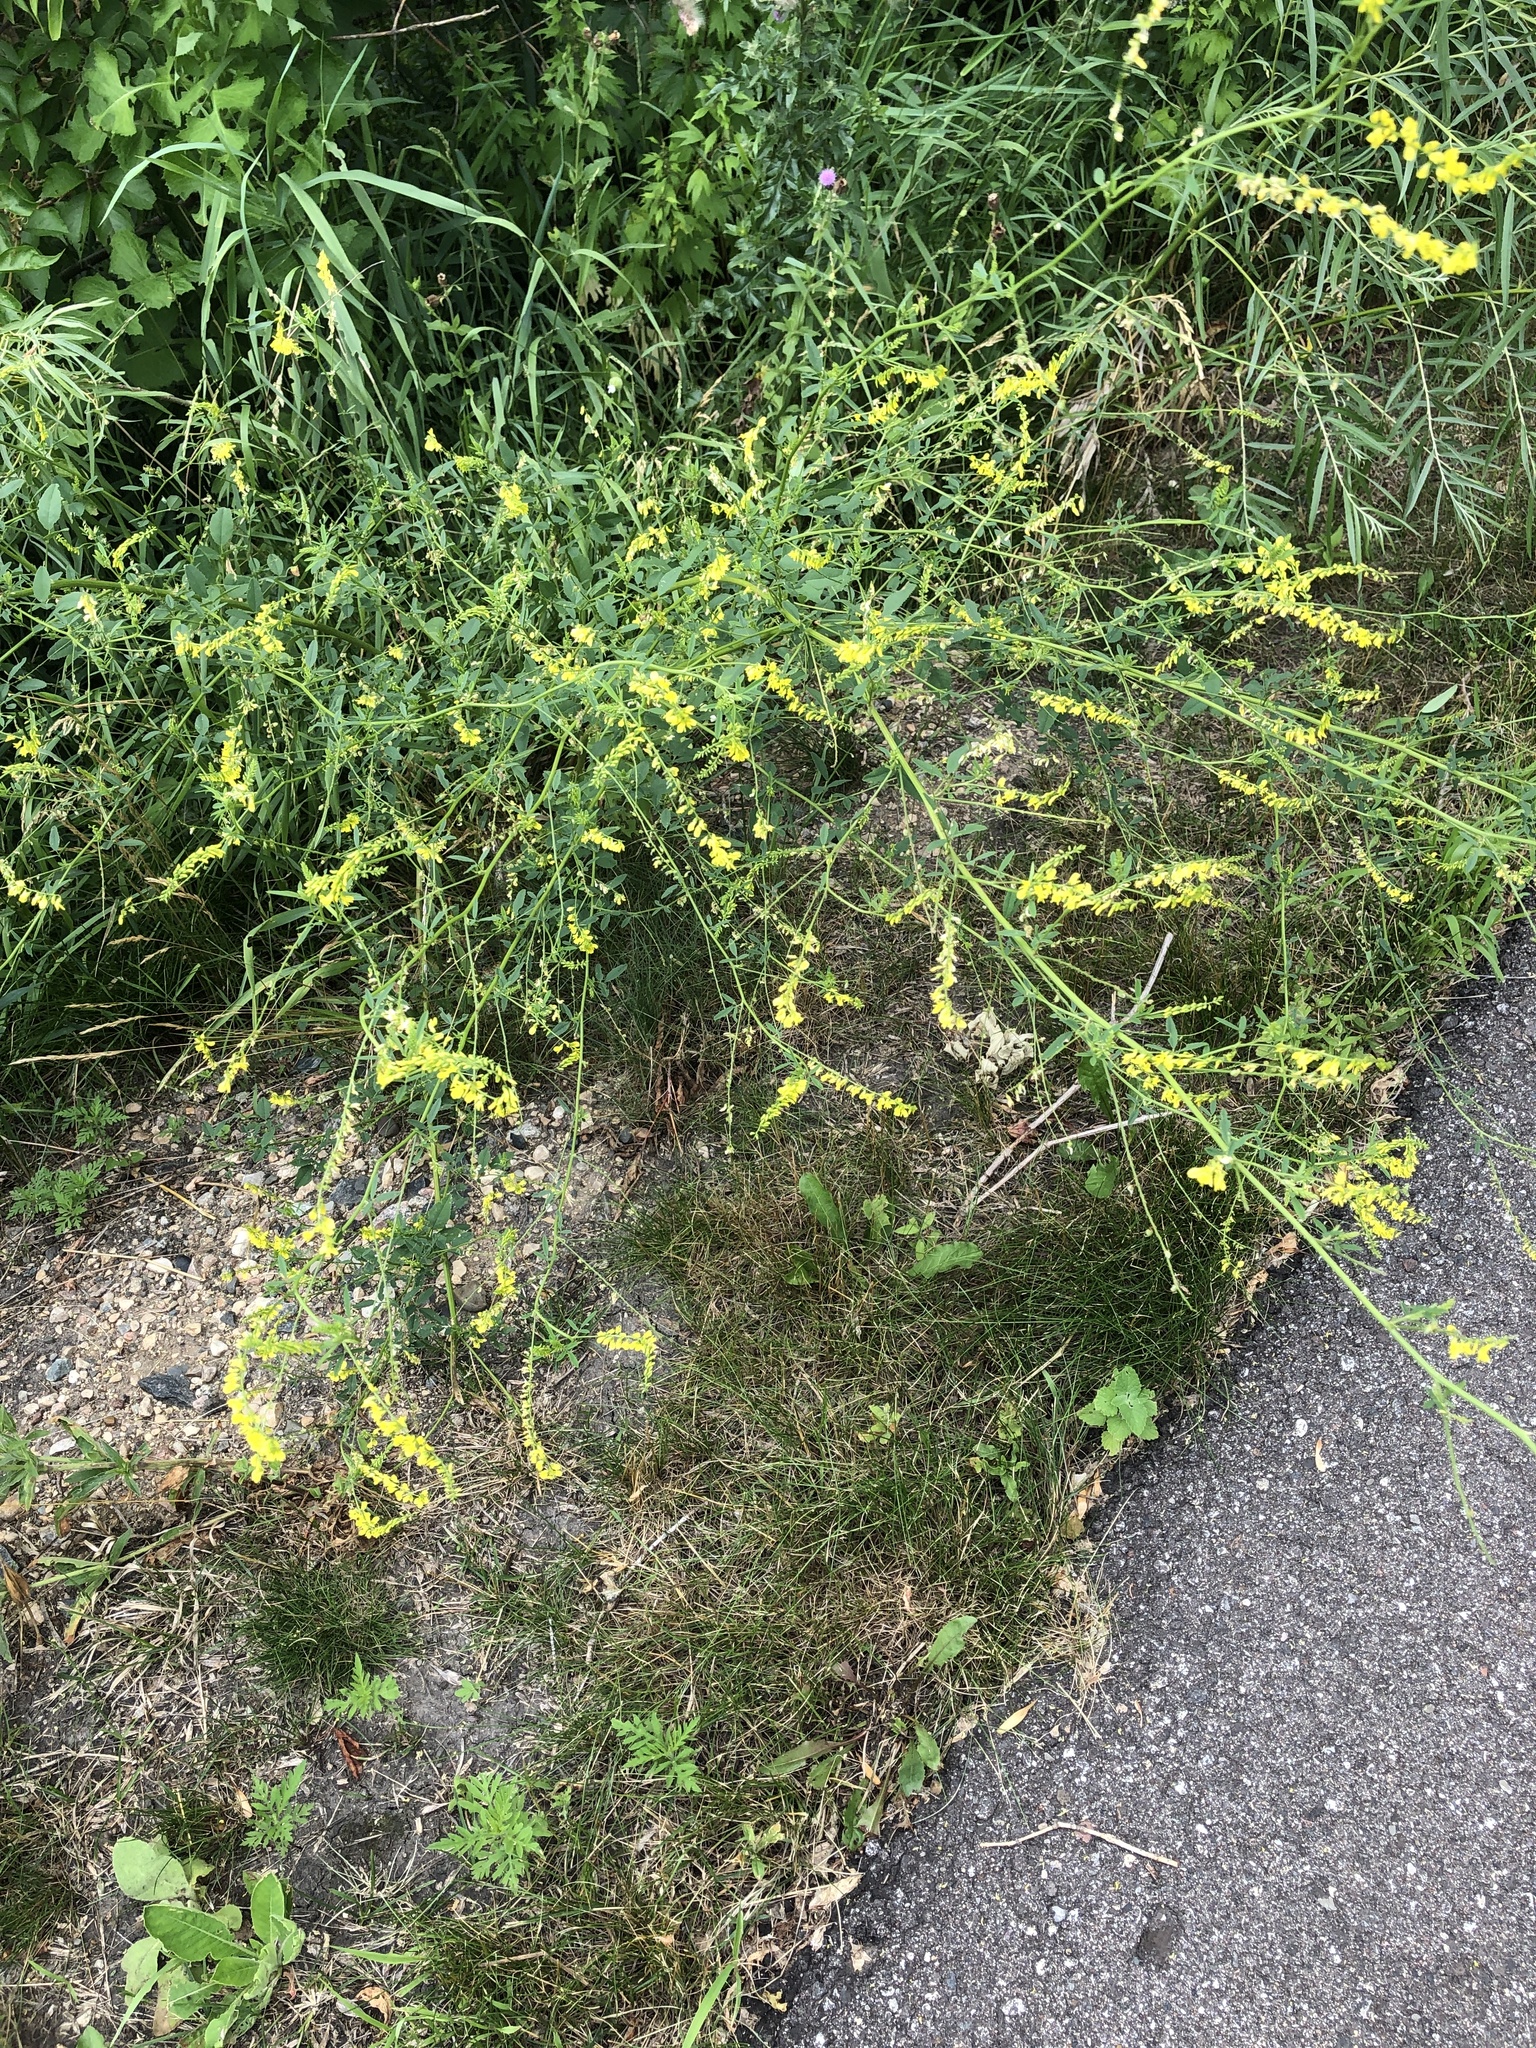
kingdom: Plantae
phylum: Tracheophyta
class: Magnoliopsida
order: Fabales
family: Fabaceae
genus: Melilotus
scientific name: Melilotus officinalis
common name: Sweetclover
